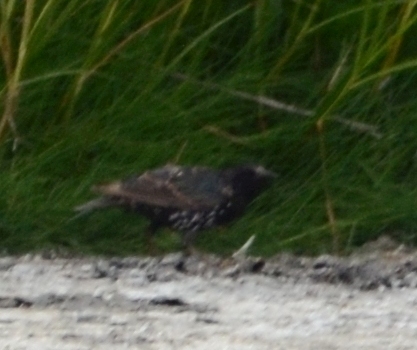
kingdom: Animalia
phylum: Chordata
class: Aves
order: Passeriformes
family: Sturnidae
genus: Sturnus
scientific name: Sturnus vulgaris
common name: Common starling
